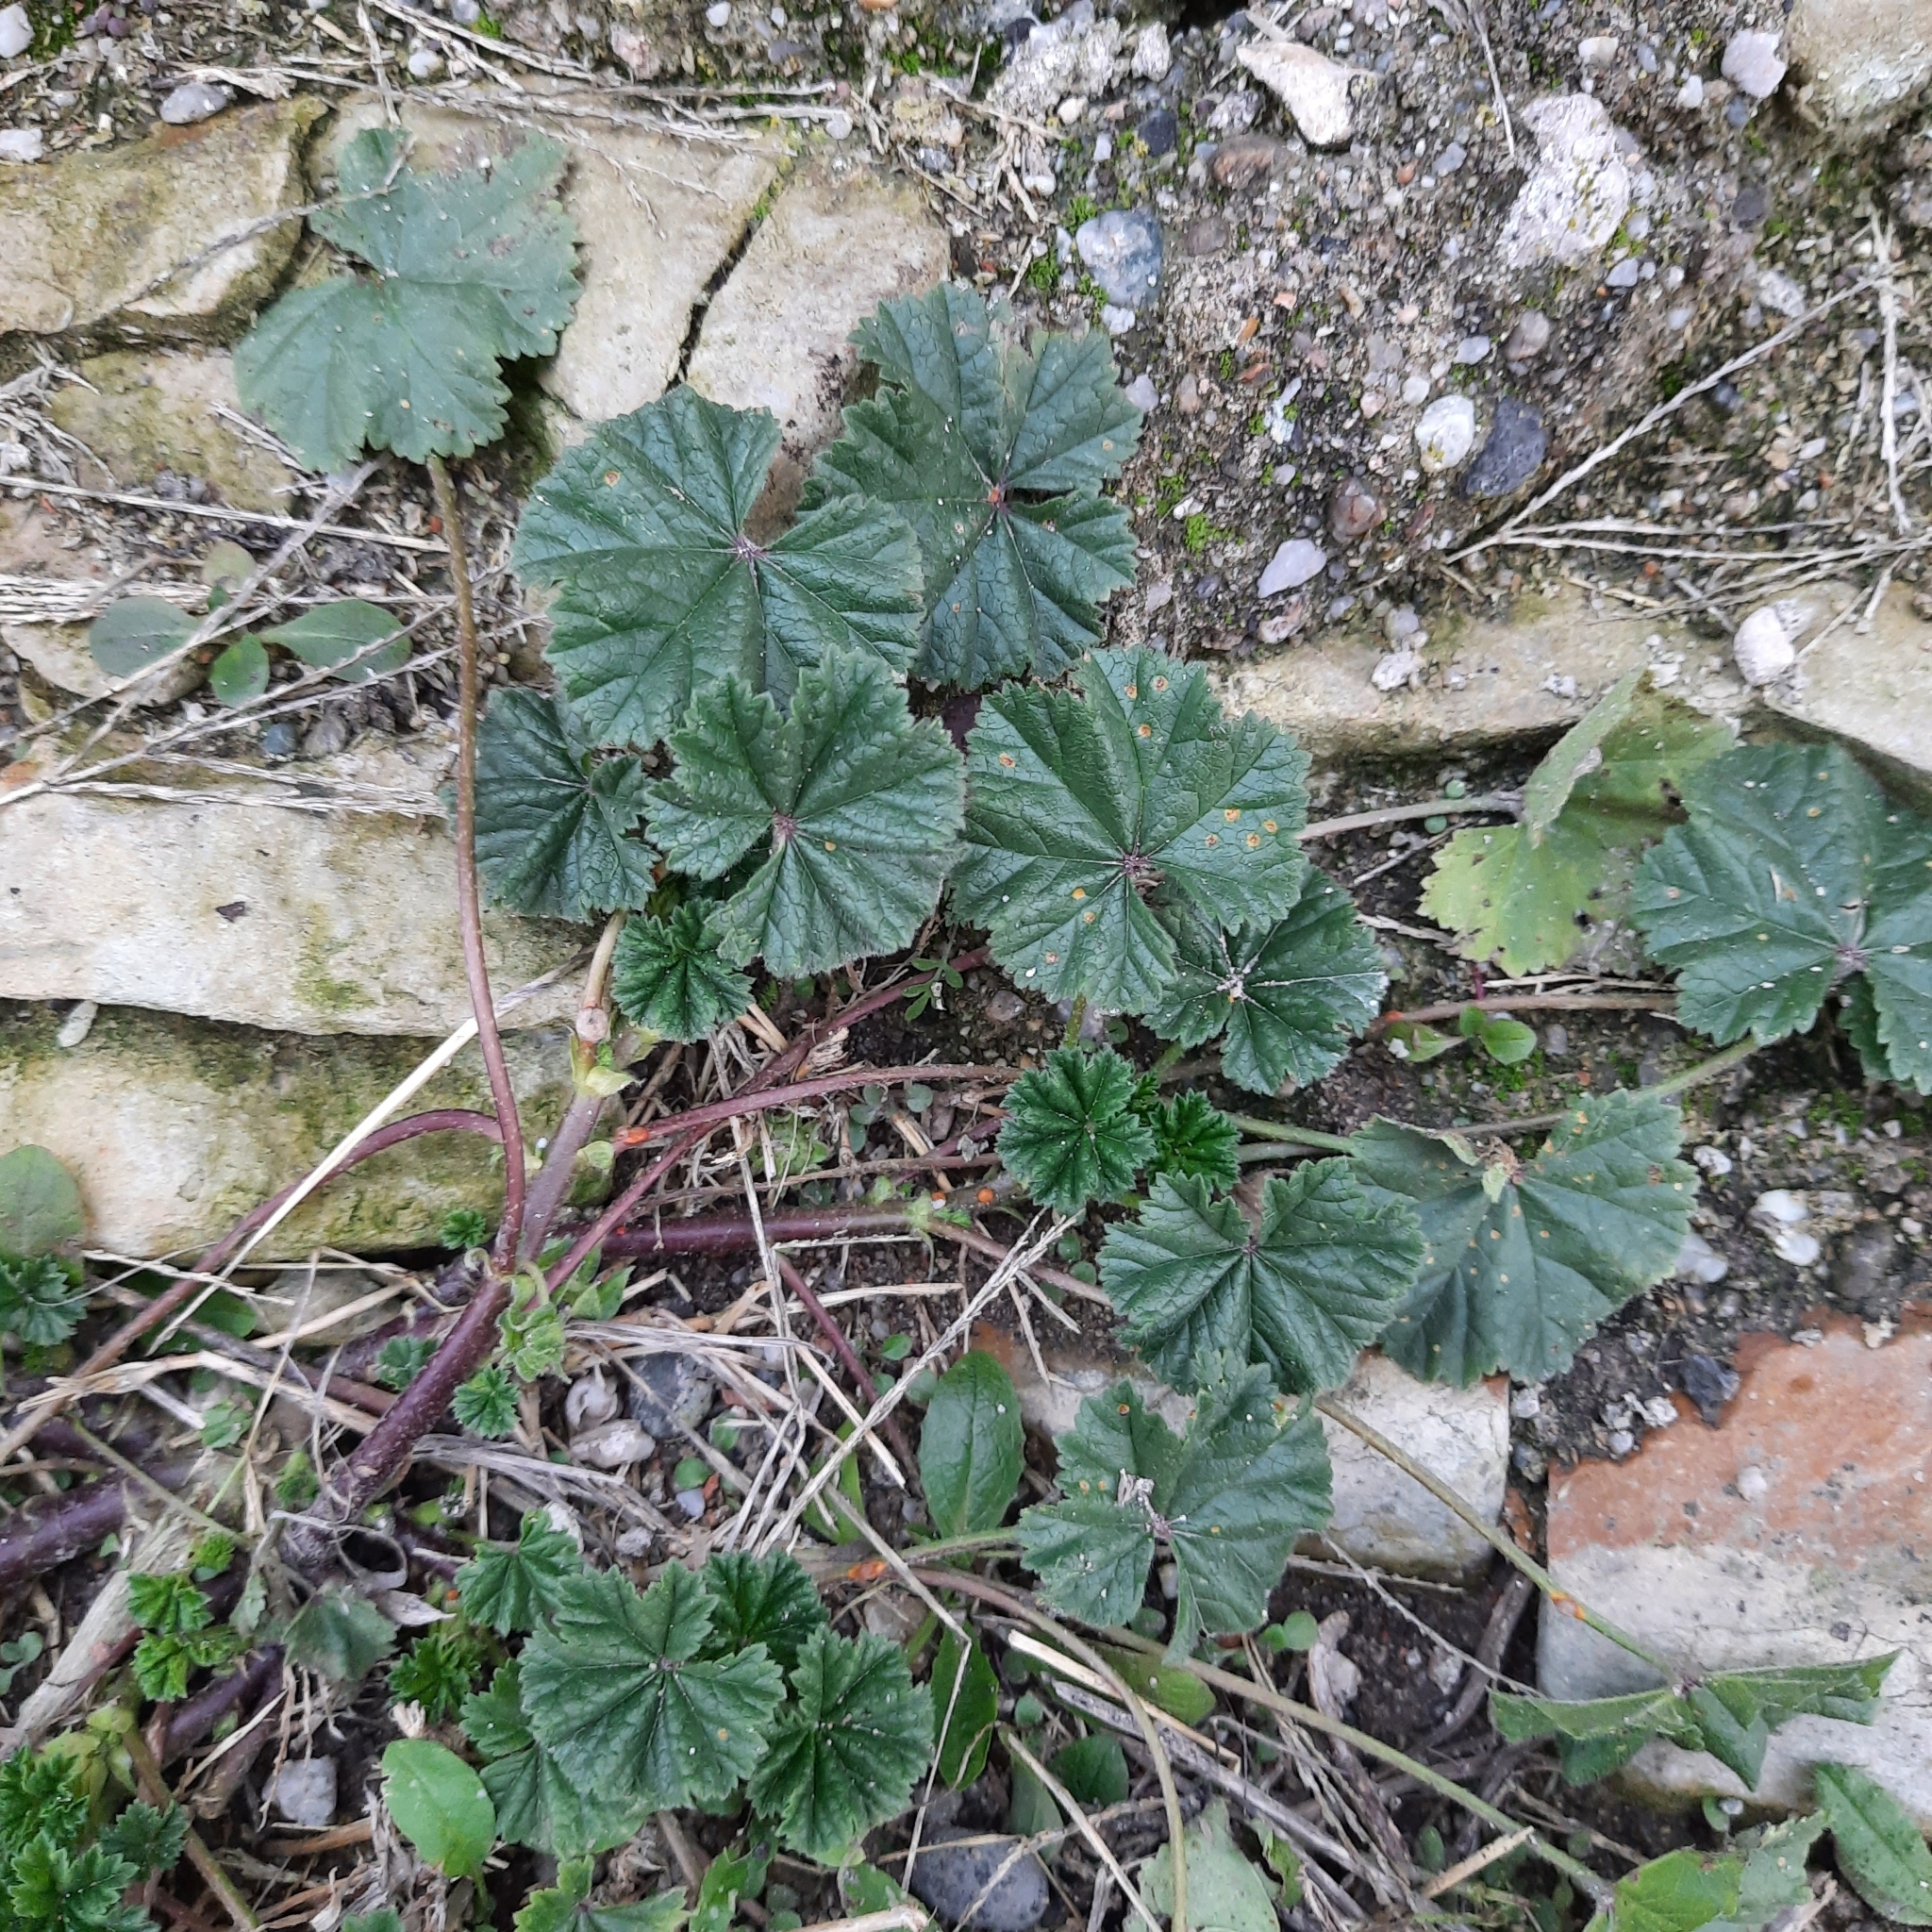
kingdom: Plantae
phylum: Tracheophyta
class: Magnoliopsida
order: Malvales
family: Malvaceae
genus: Malva
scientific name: Malva neglecta
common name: Common mallow
